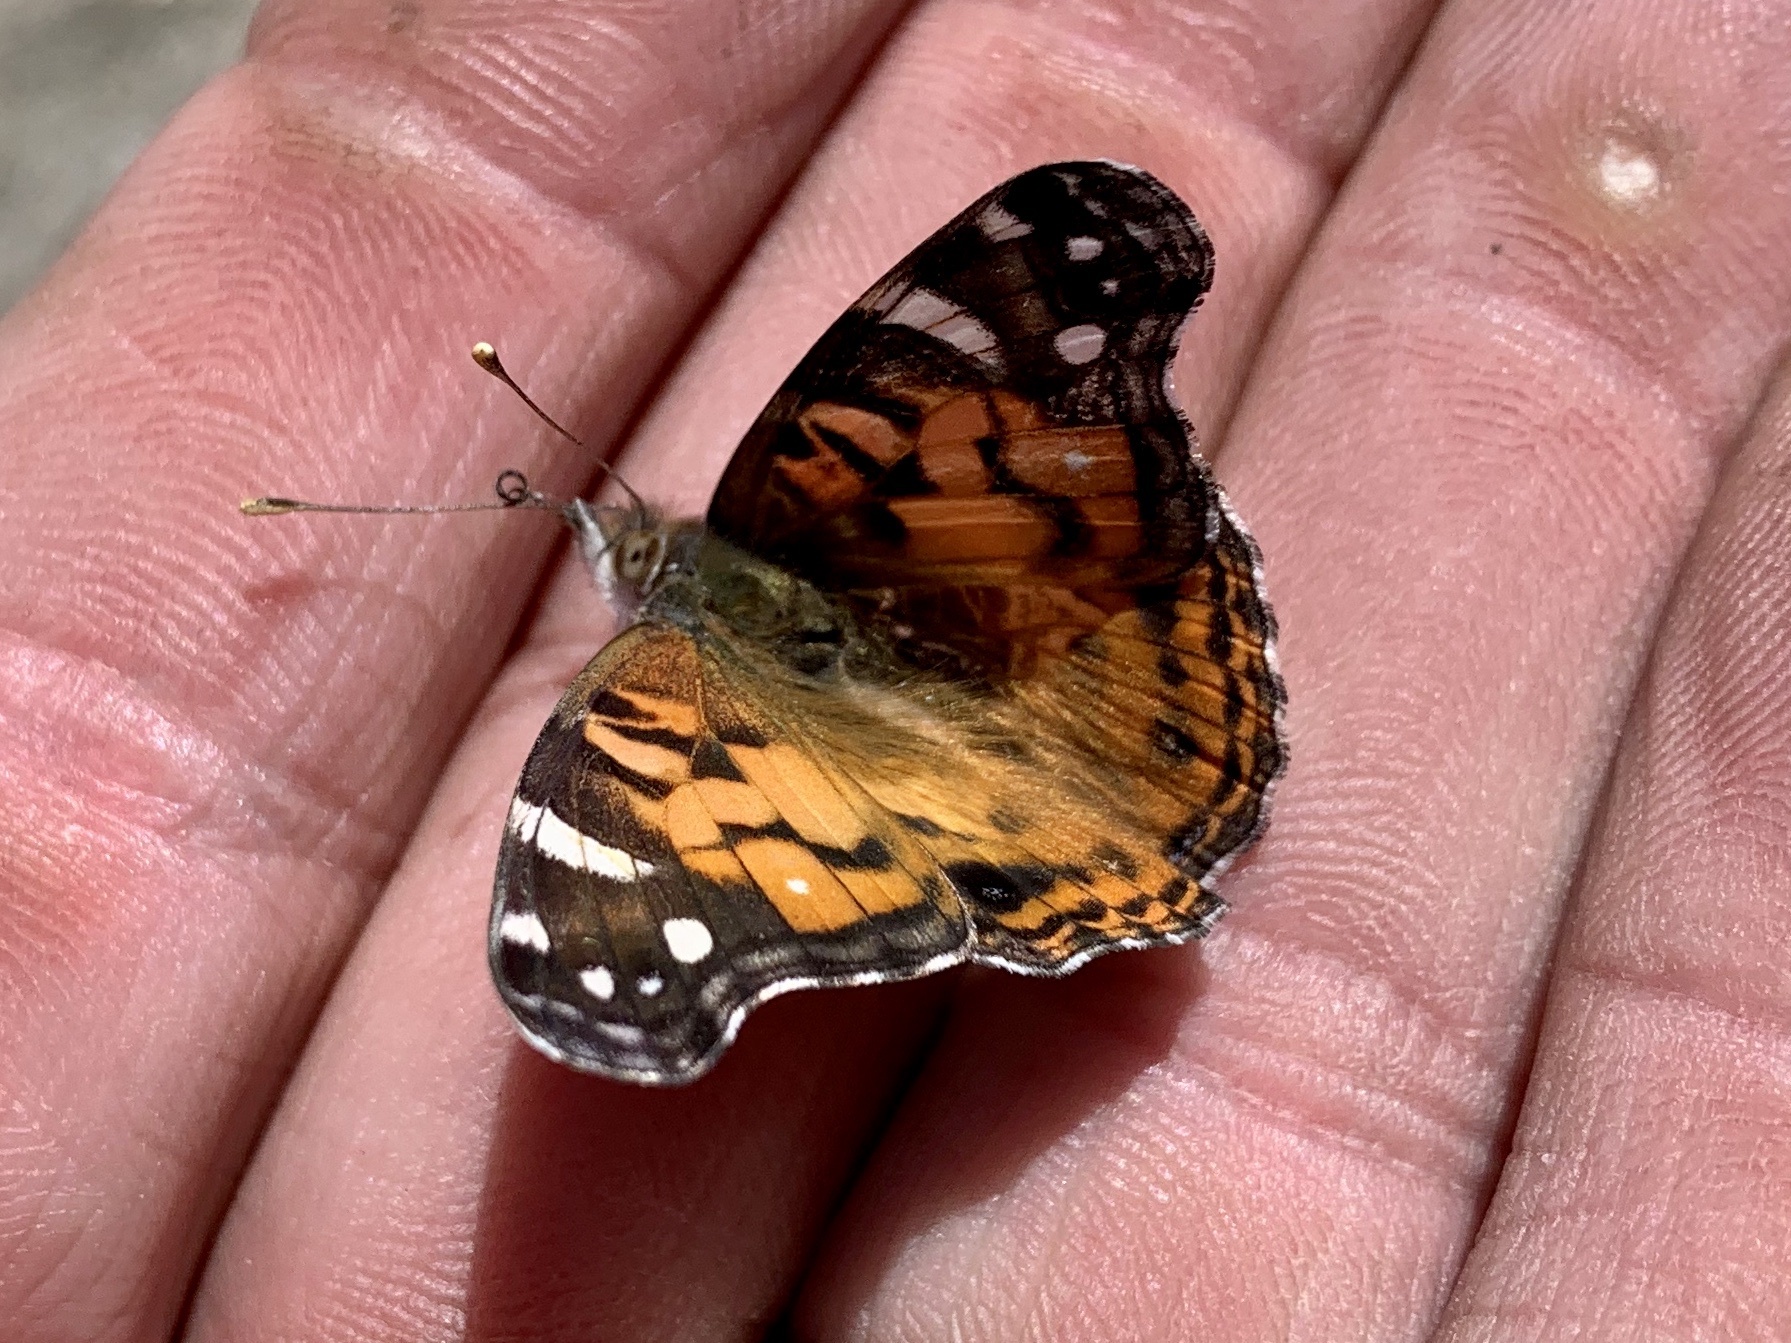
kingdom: Animalia
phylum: Arthropoda
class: Insecta
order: Lepidoptera
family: Nymphalidae
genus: Vanessa
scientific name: Vanessa virginiensis
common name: American lady
